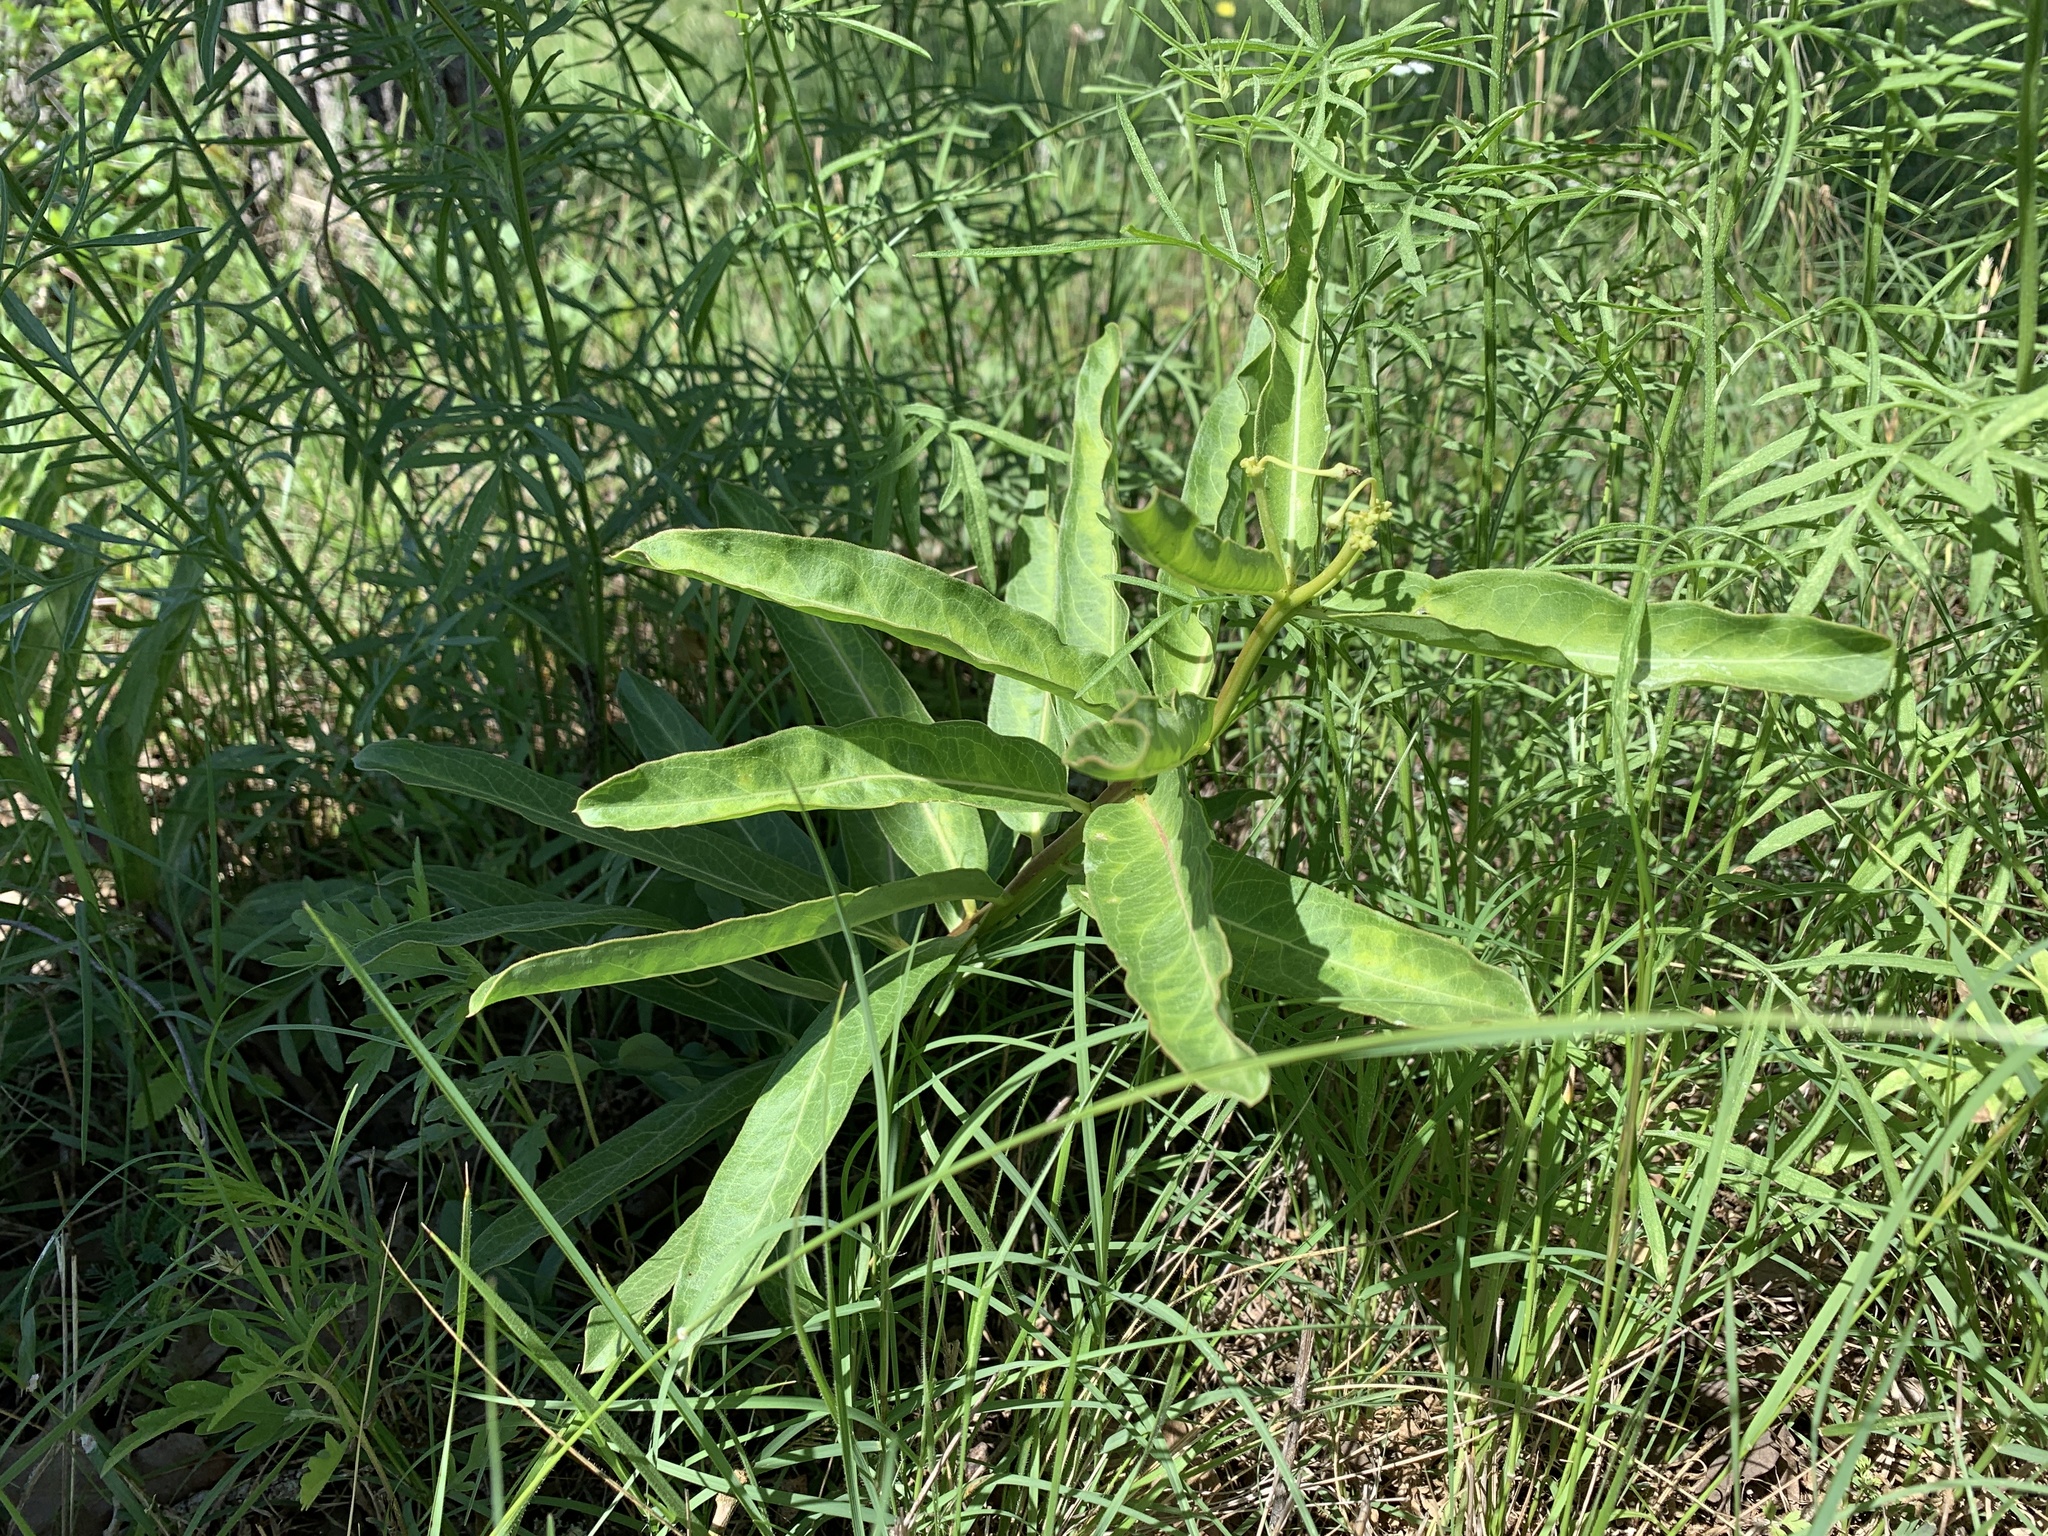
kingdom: Plantae
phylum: Tracheophyta
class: Magnoliopsida
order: Gentianales
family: Apocynaceae
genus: Asclepias
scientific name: Asclepias viridis
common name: Antelope-horns
